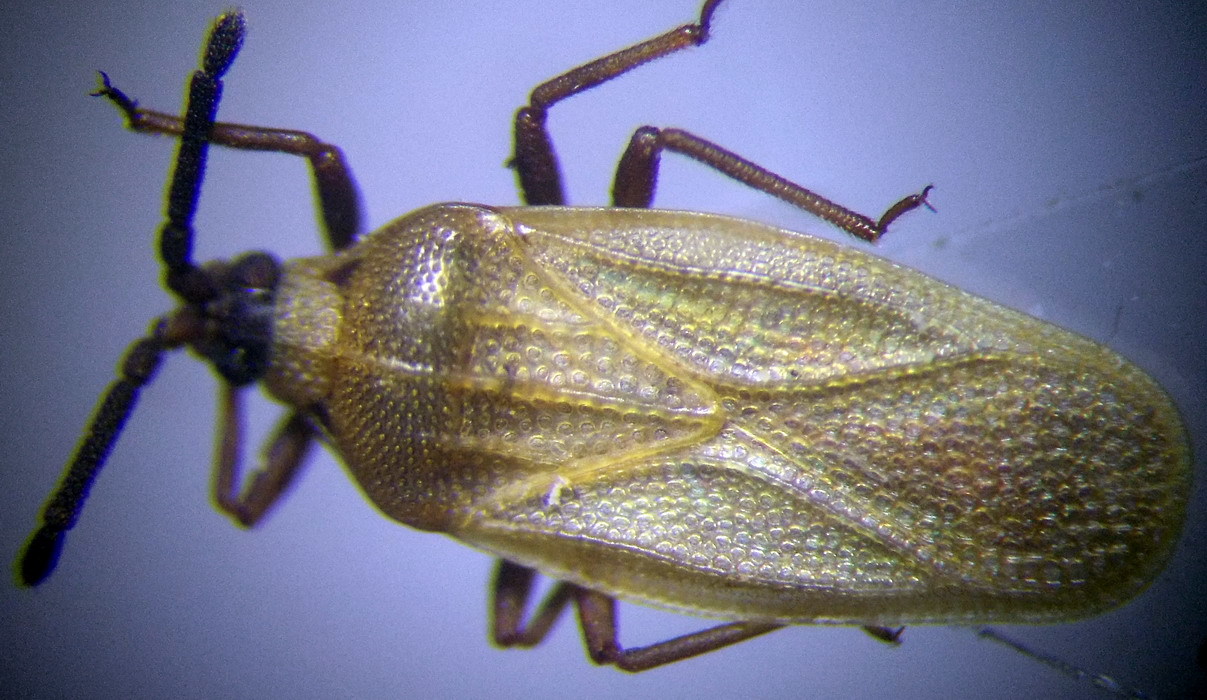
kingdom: Animalia
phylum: Arthropoda
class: Insecta
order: Hemiptera
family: Tingidae
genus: Catoplatus
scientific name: Catoplatus carthusianus
